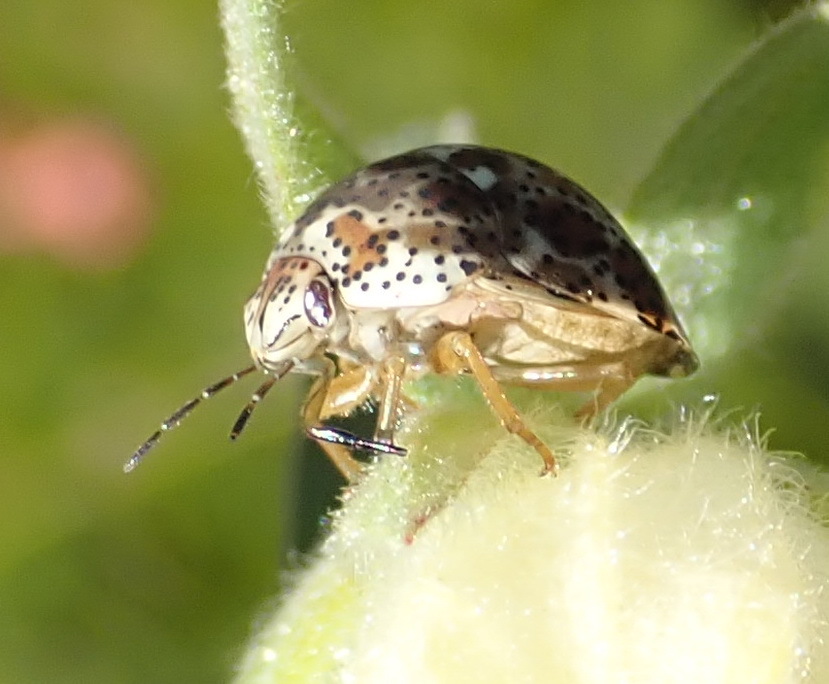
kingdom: Animalia
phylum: Arthropoda
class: Insecta
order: Hemiptera
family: Scutelleridae
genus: Sphaerocoris
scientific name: Sphaerocoris
